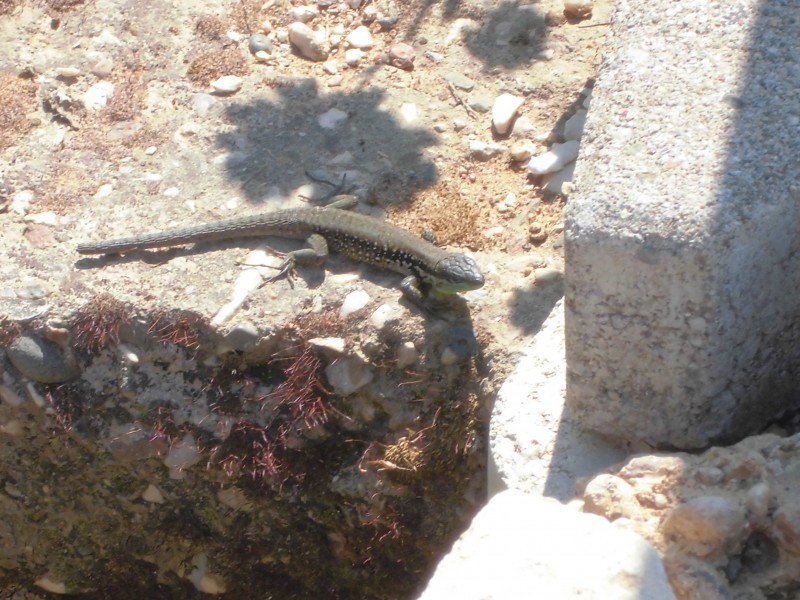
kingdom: Animalia
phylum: Chordata
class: Squamata
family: Lacertidae
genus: Phoenicolacerta
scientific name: Phoenicolacerta laevis
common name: Lebanon lizard
